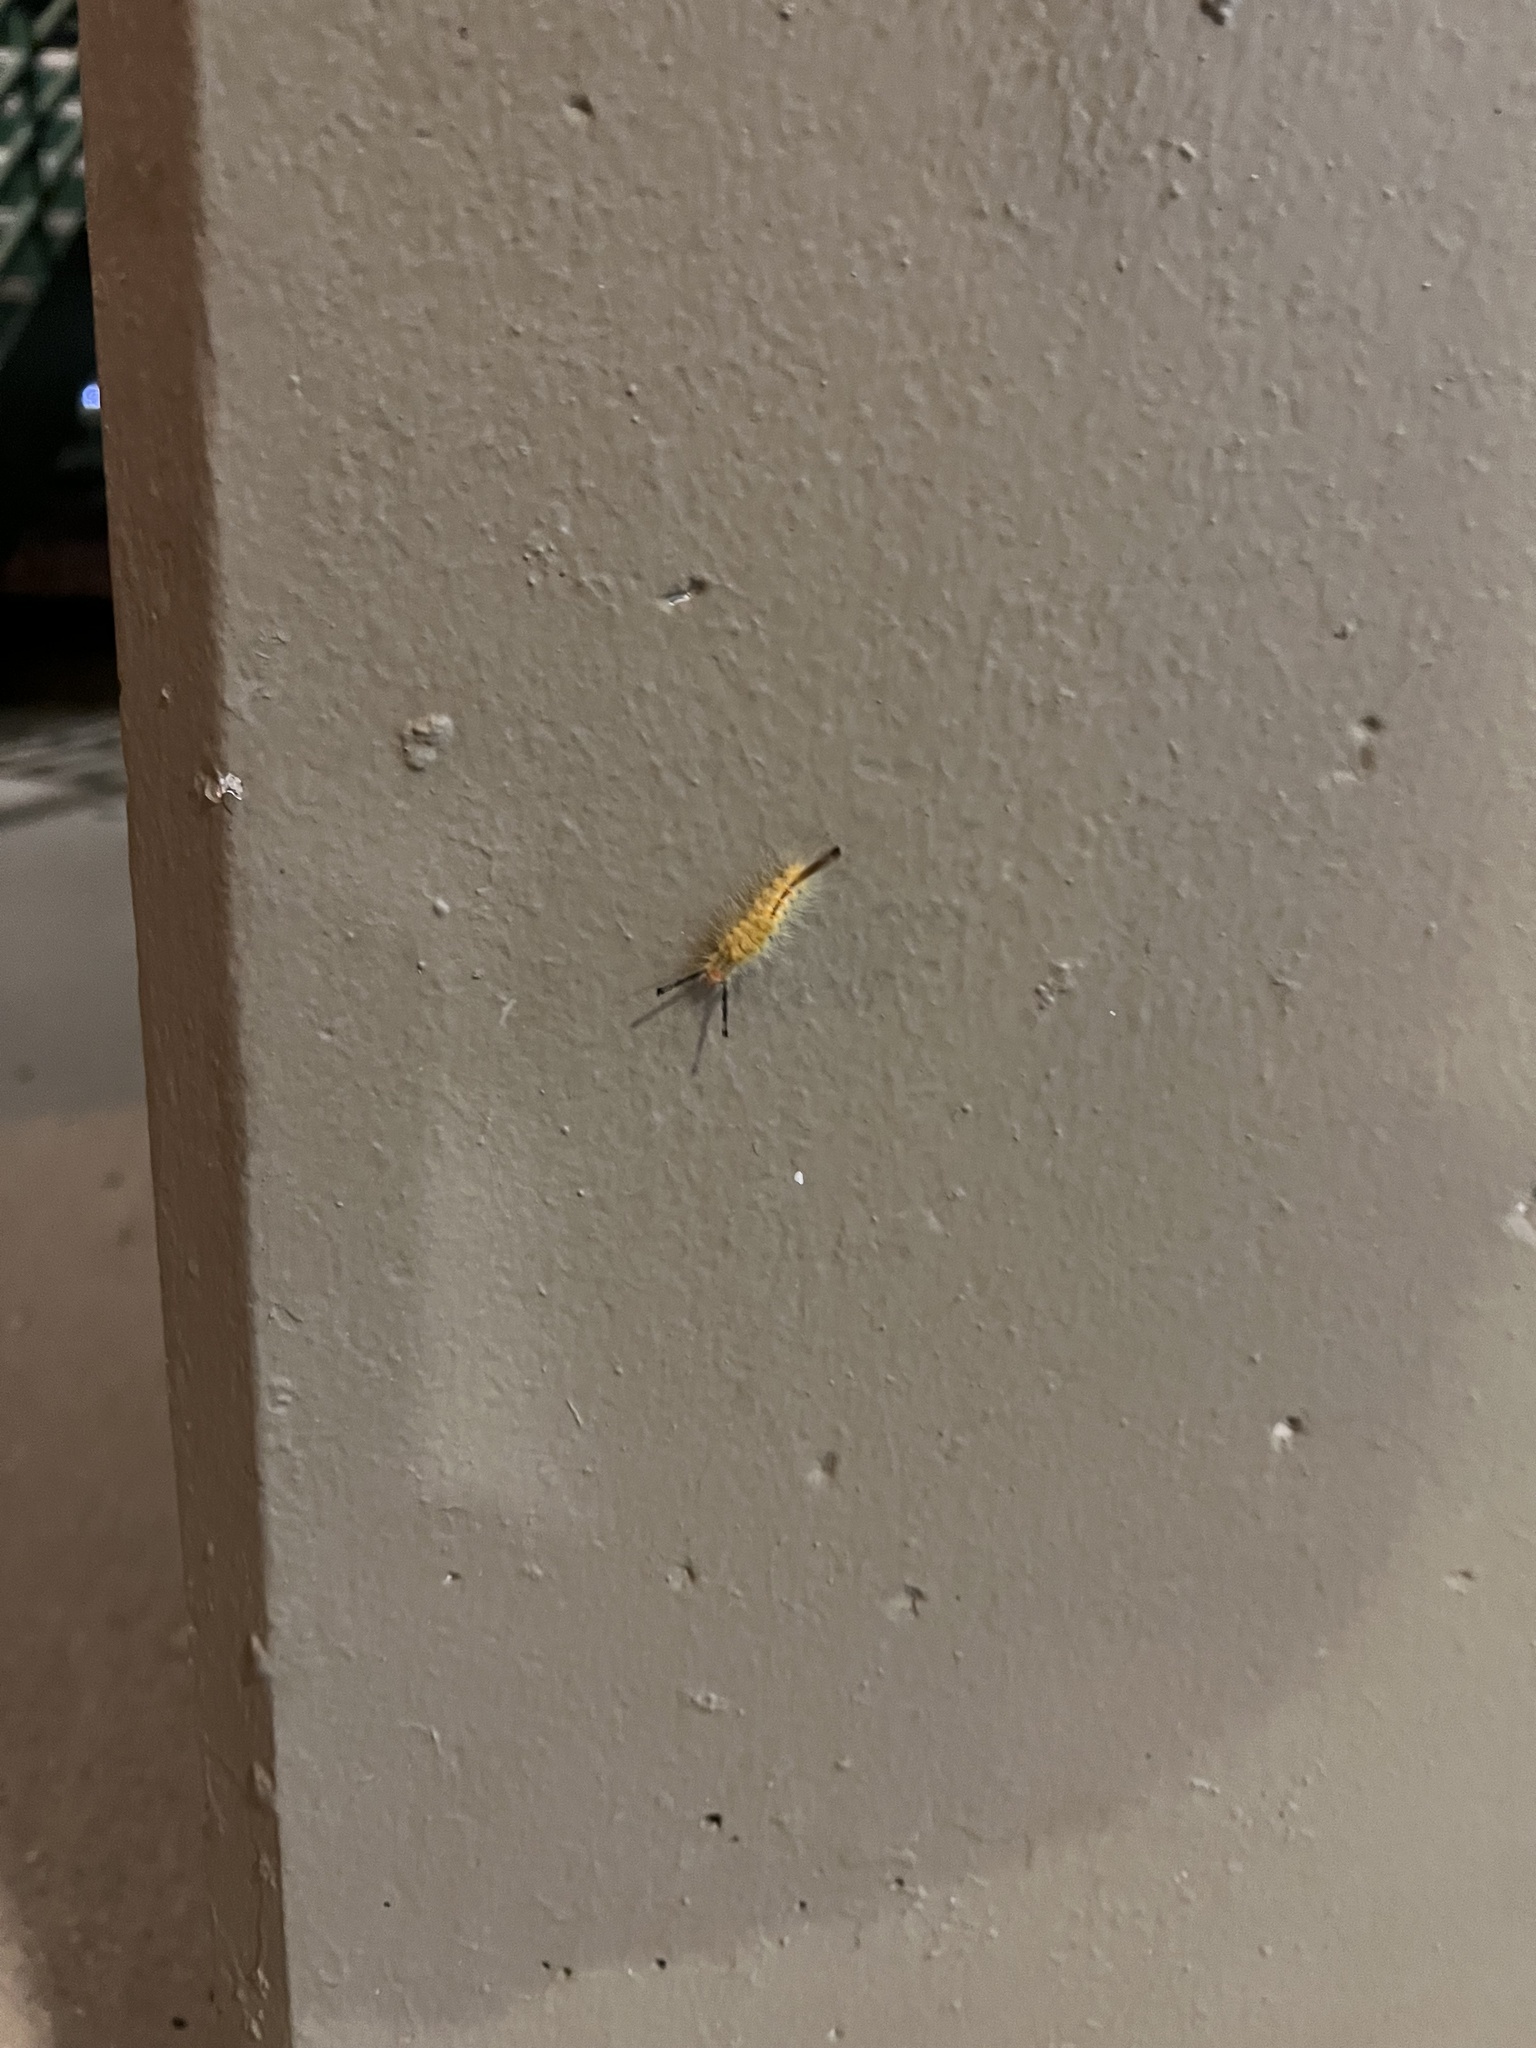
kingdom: Animalia
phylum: Arthropoda
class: Insecta
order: Lepidoptera
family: Erebidae
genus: Orgyia
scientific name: Orgyia detrita
